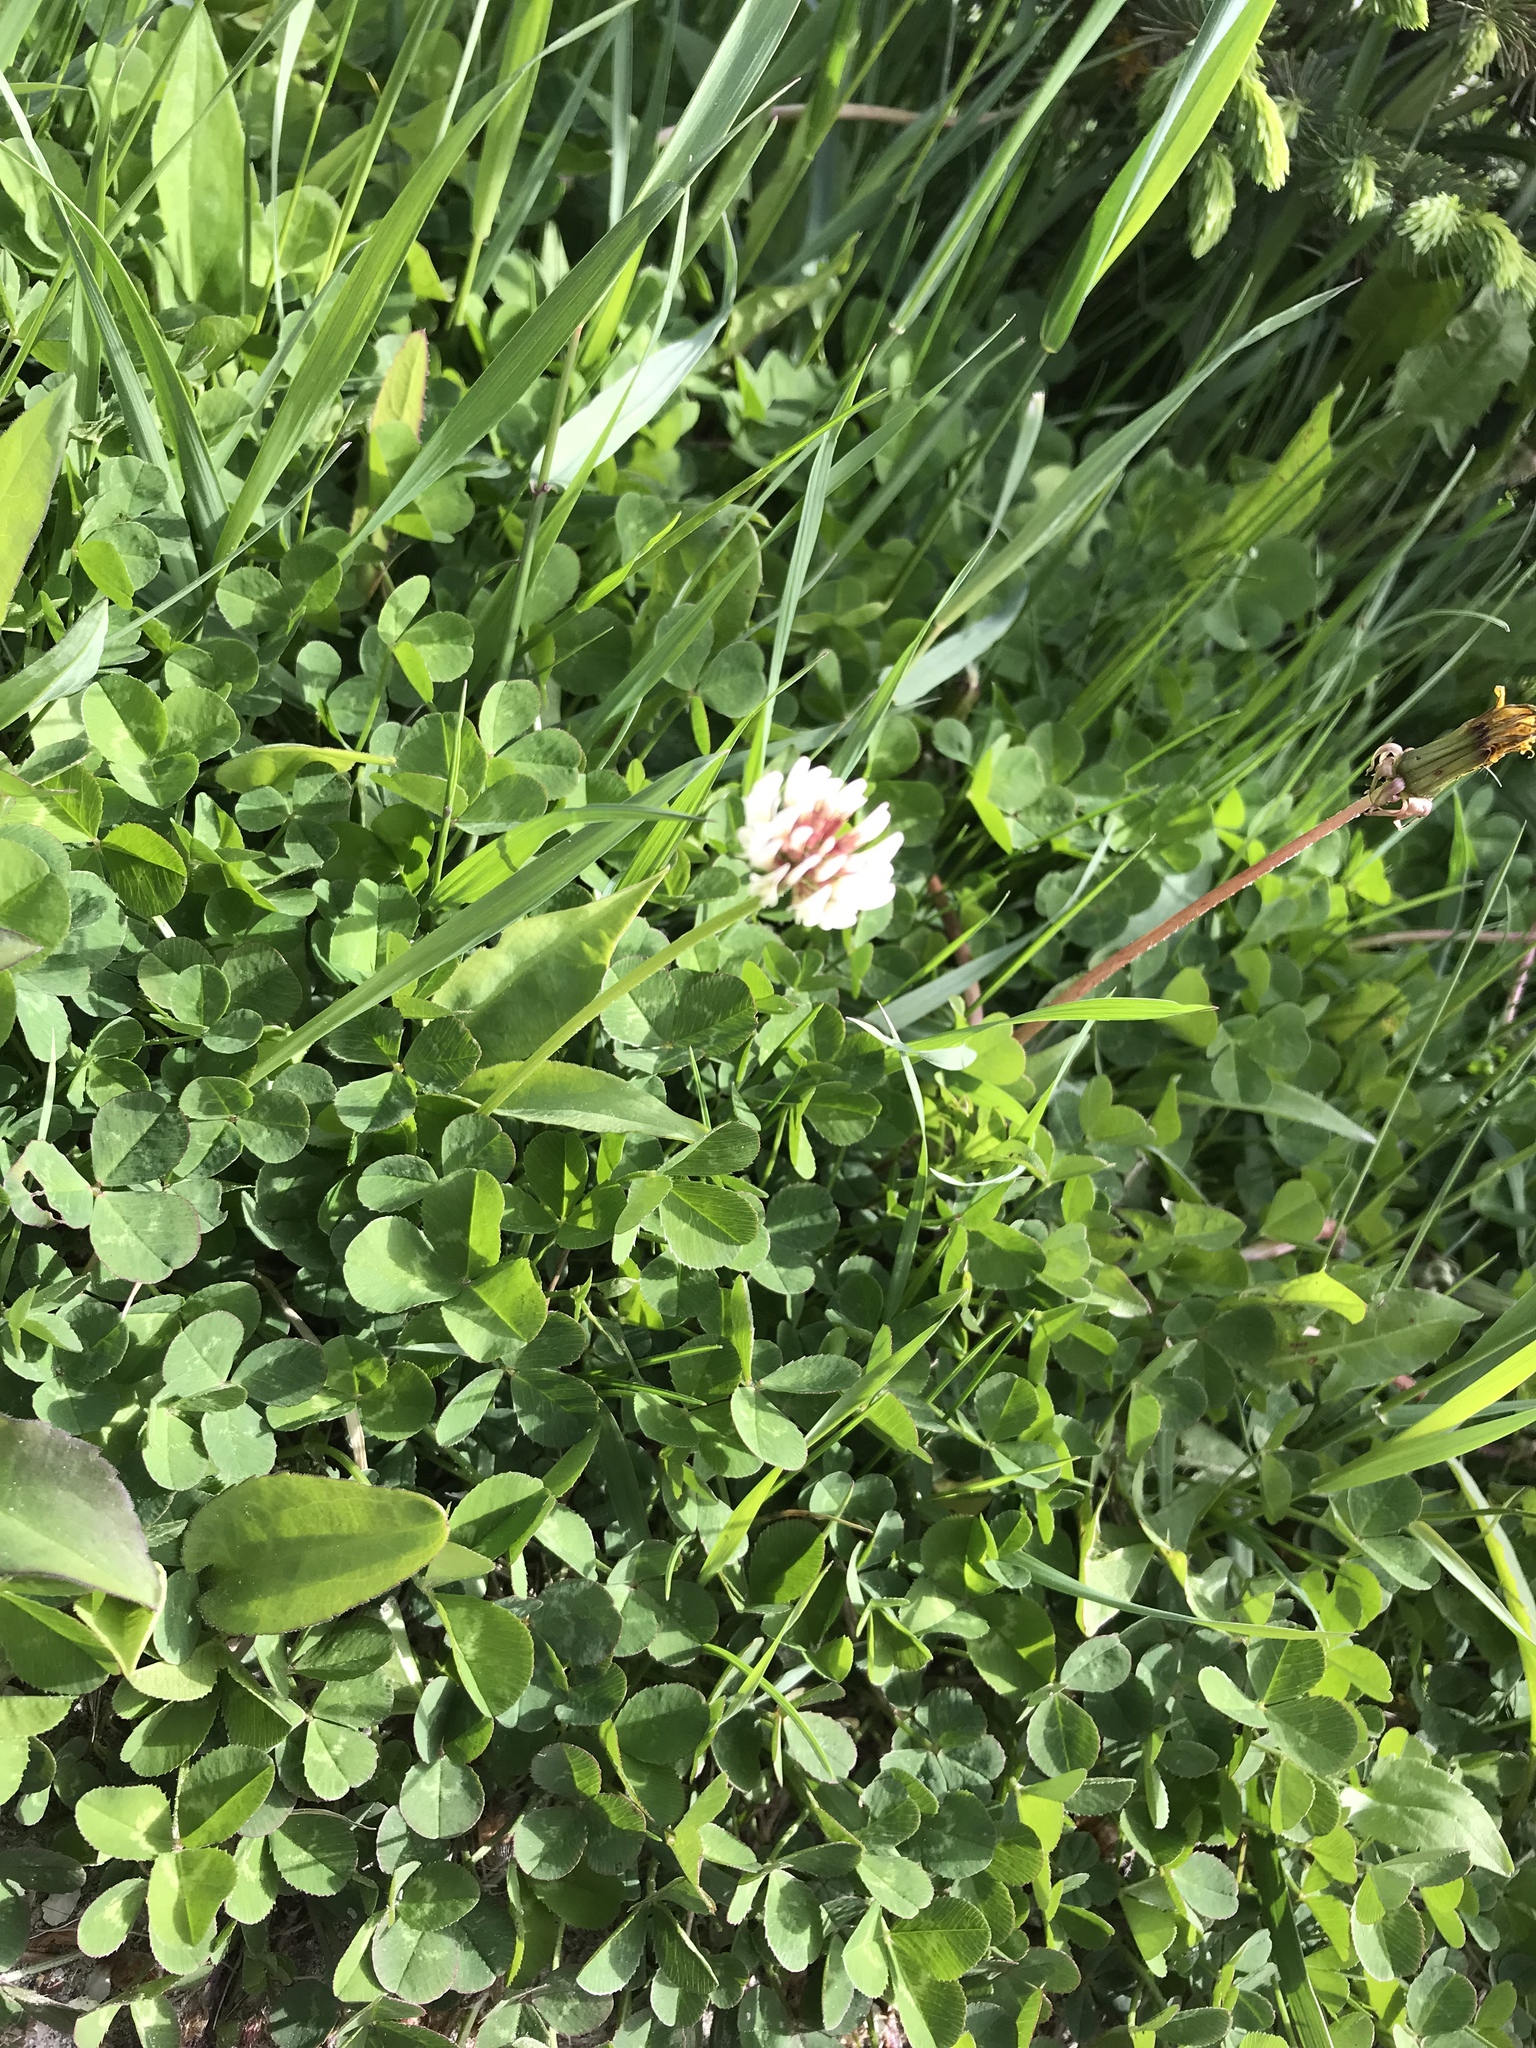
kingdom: Plantae
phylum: Tracheophyta
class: Magnoliopsida
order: Fabales
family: Fabaceae
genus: Trifolium
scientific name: Trifolium repens
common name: White clover
